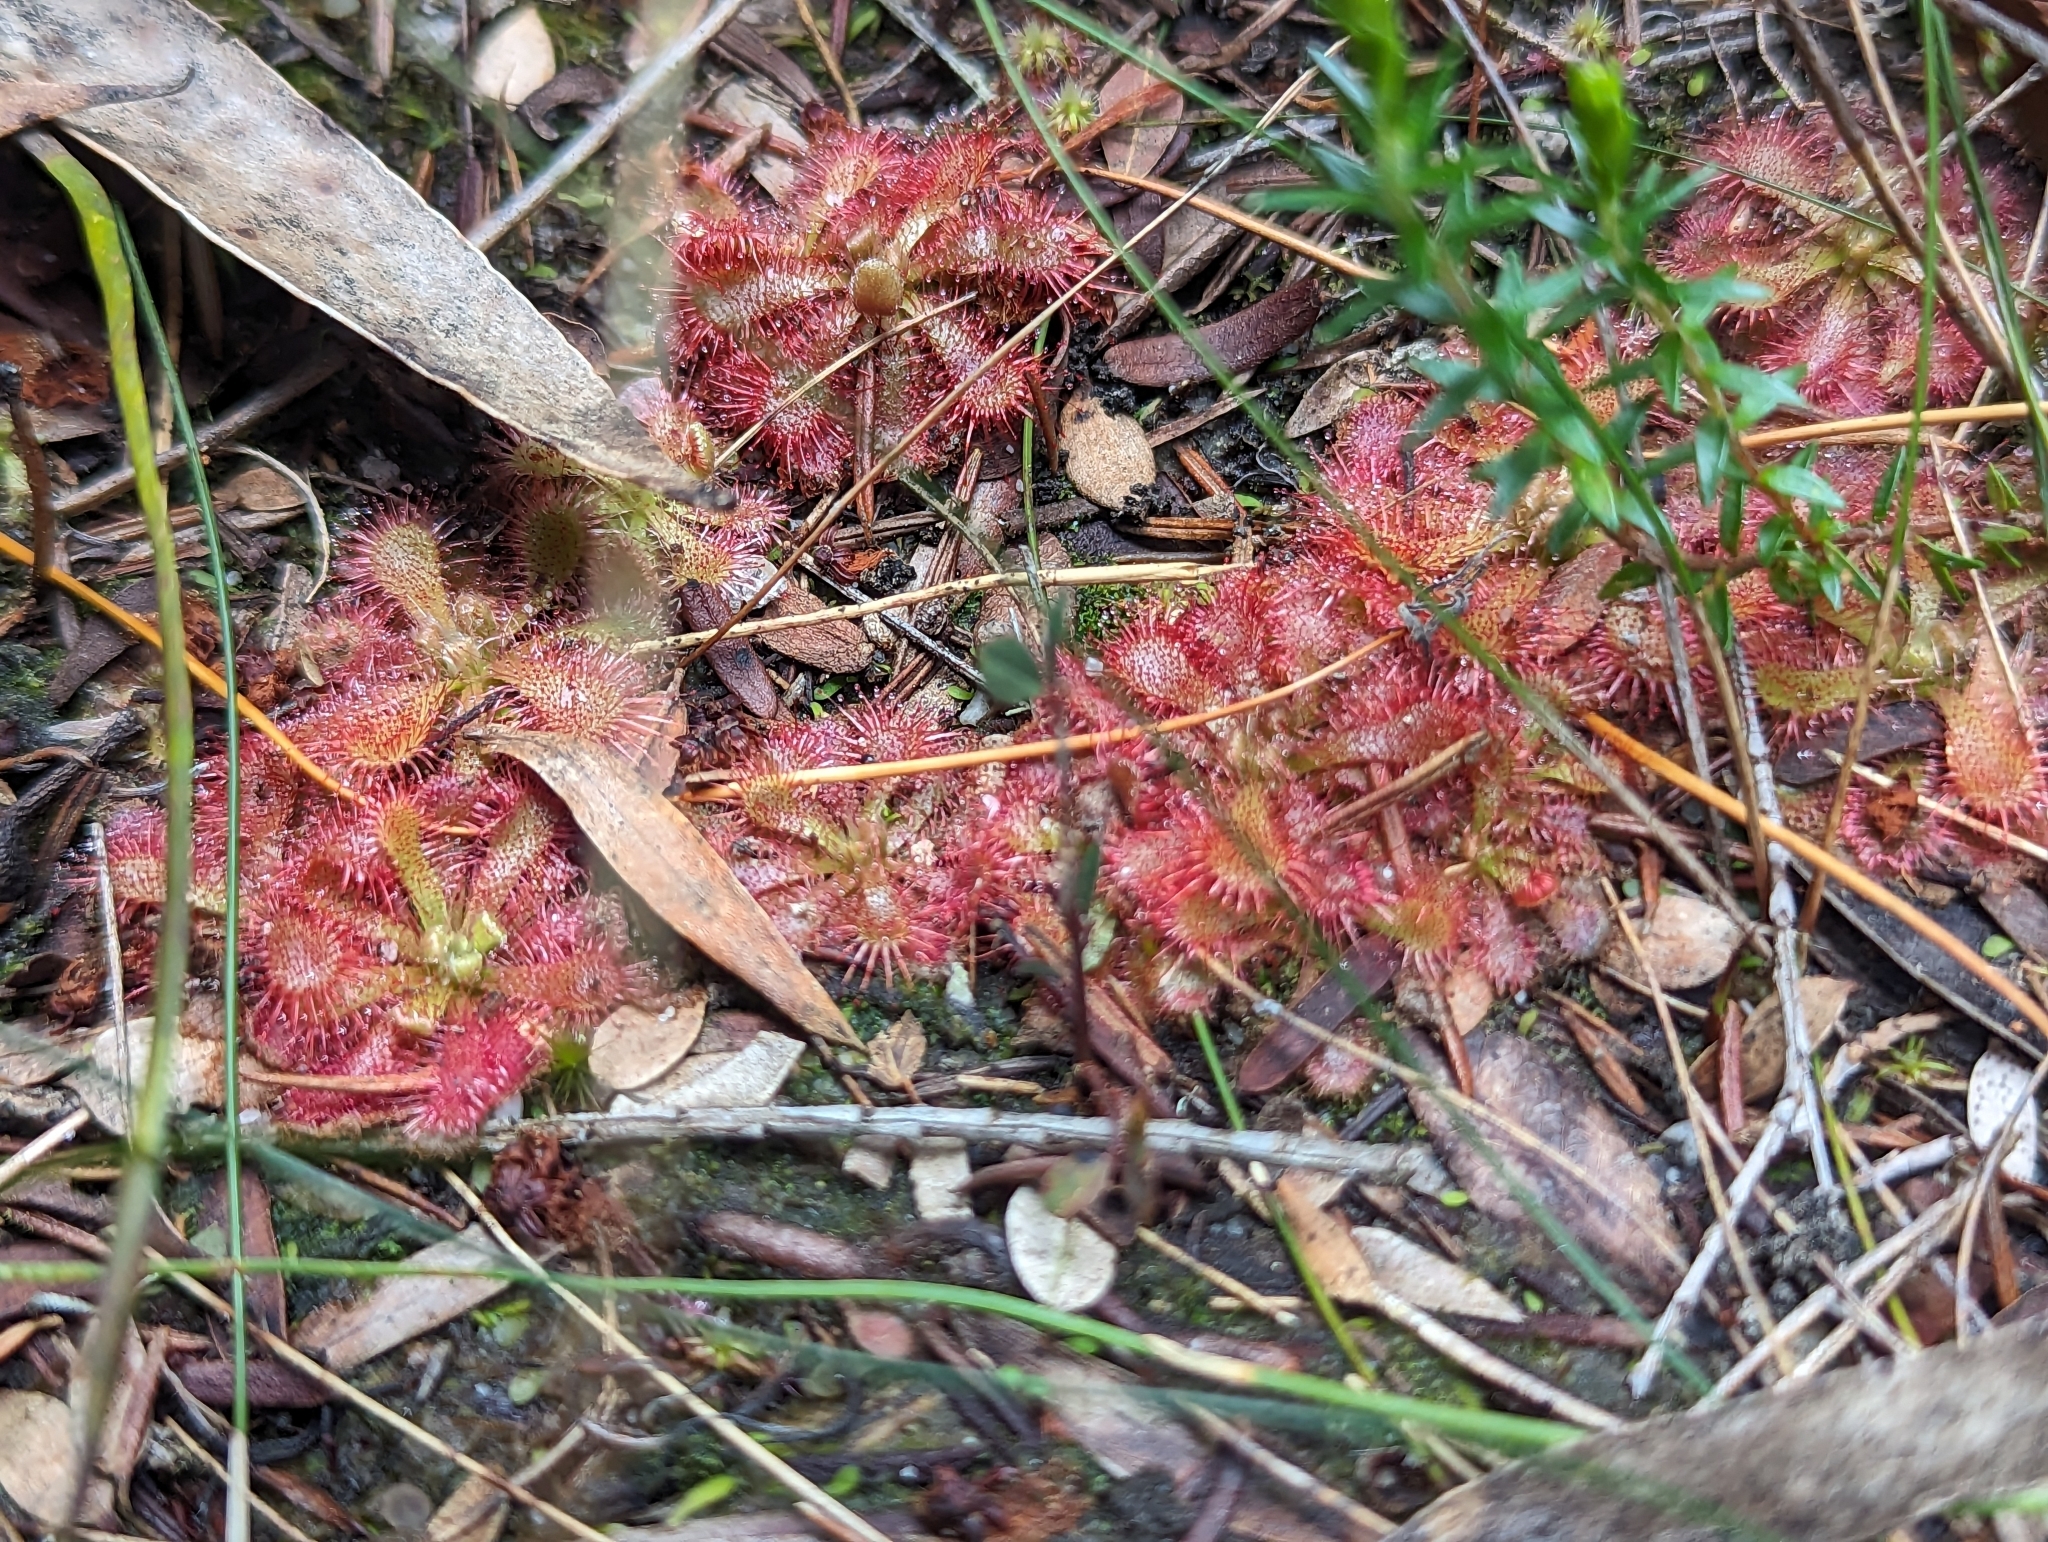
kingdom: Plantae
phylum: Tracheophyta
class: Magnoliopsida
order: Caryophyllales
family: Droseraceae
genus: Drosera
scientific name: Drosera spatulata
